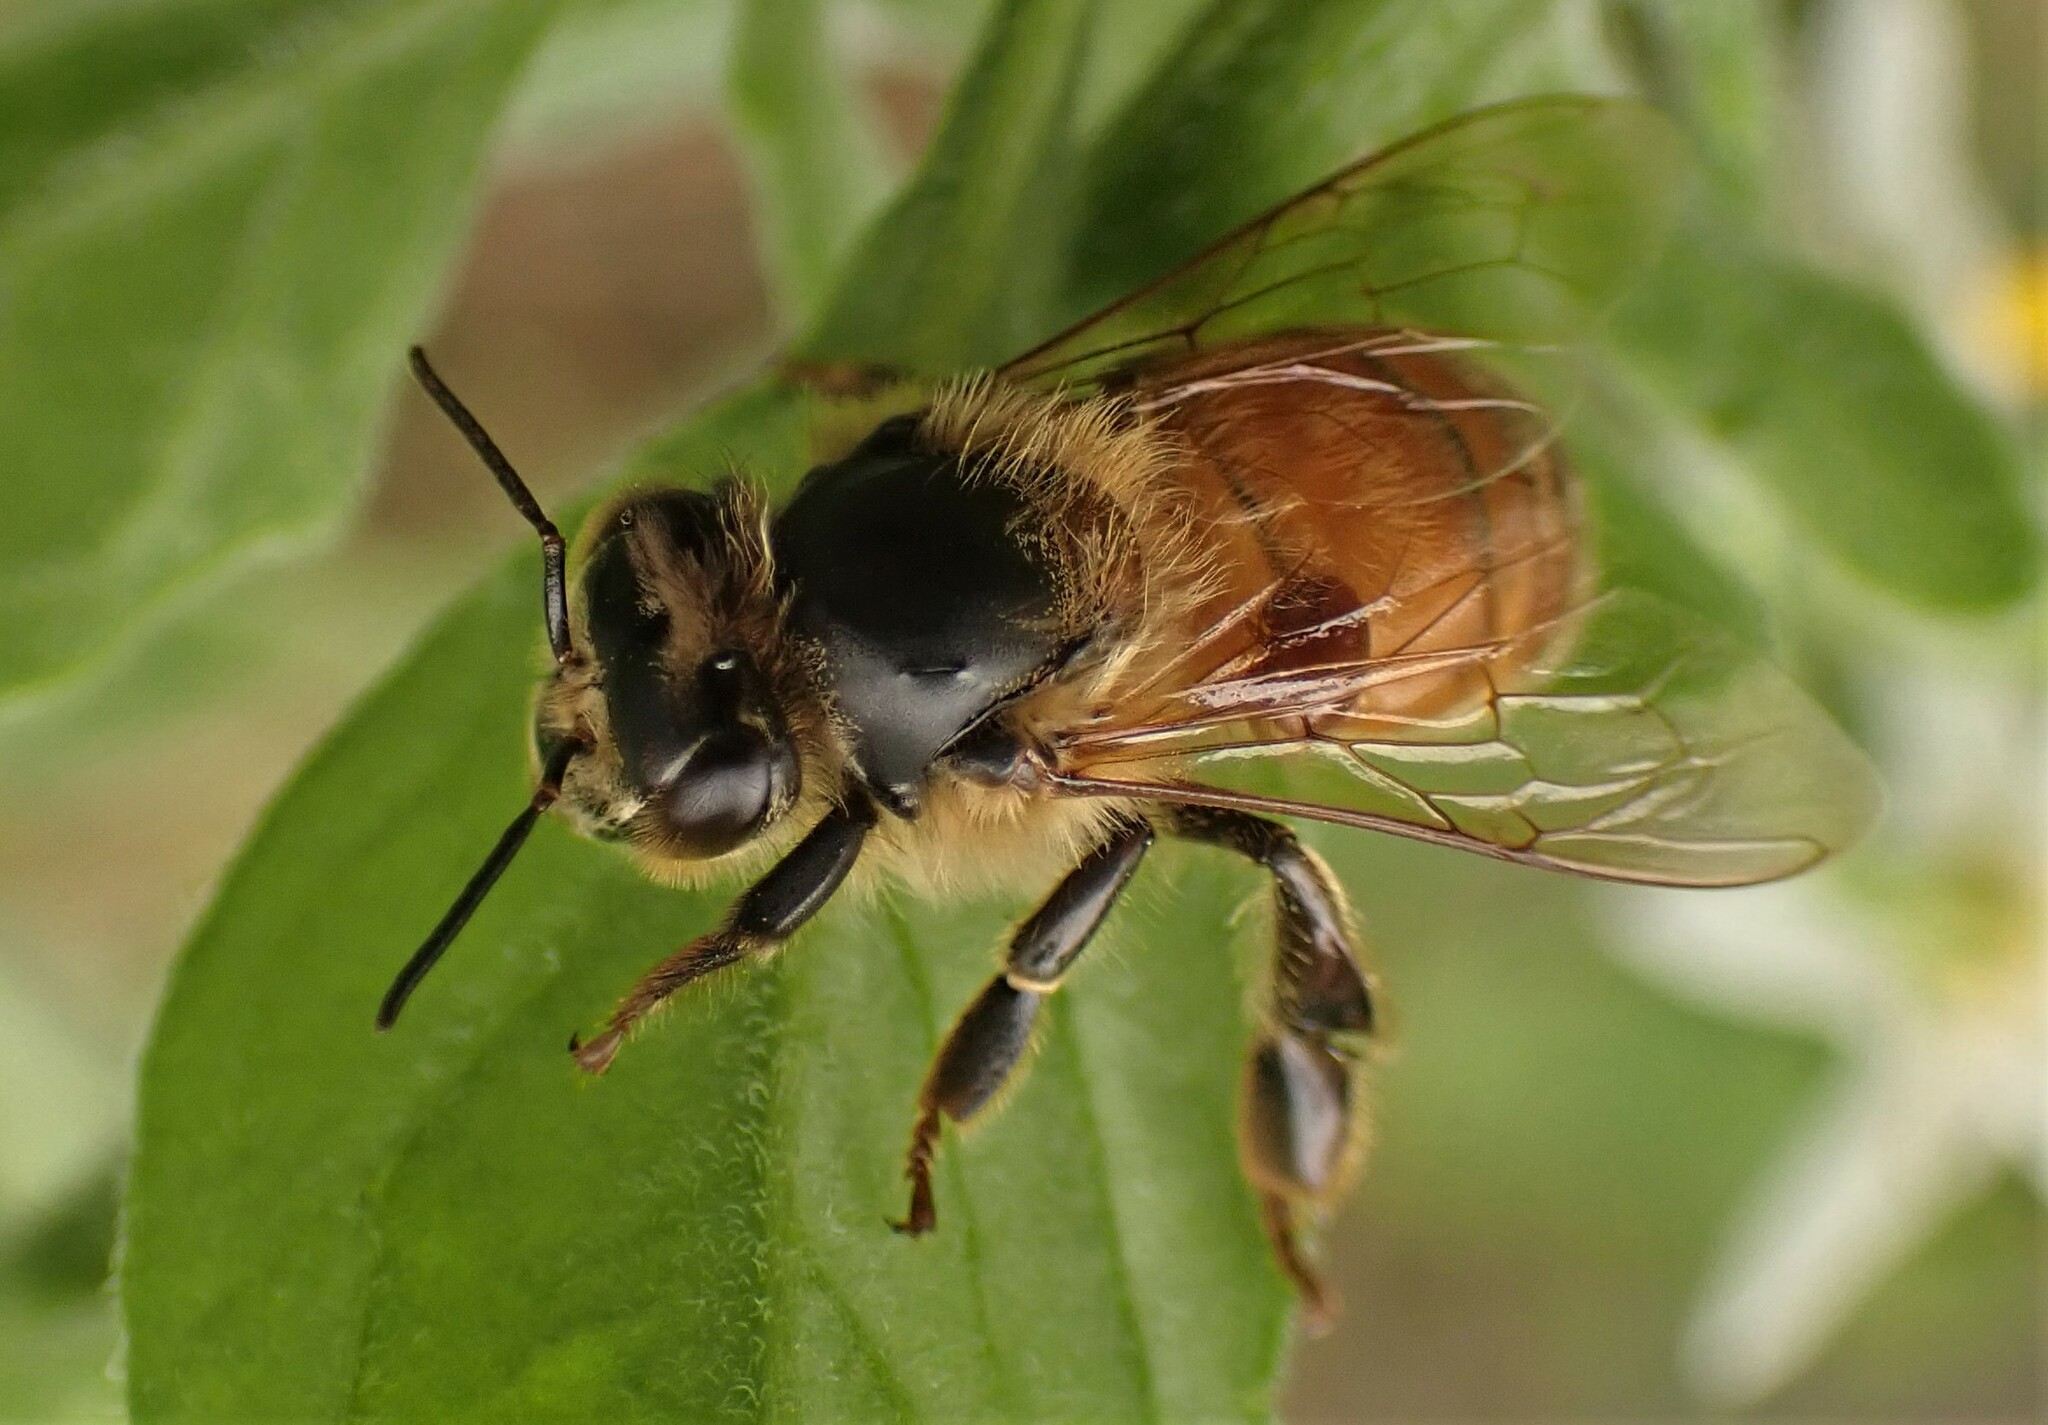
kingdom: Animalia
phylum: Arthropoda
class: Insecta
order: Hymenoptera
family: Apidae
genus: Apis
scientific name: Apis mellifera
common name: Honey bee
